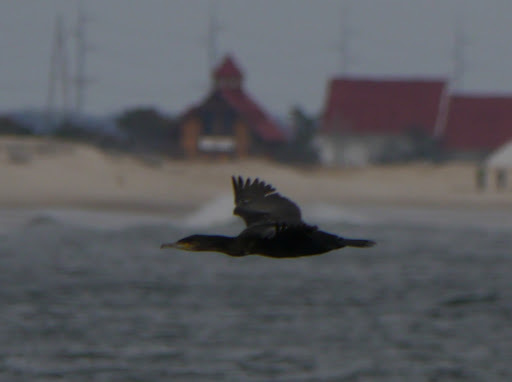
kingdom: Animalia
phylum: Chordata
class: Aves
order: Suliformes
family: Phalacrocoracidae
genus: Phalacrocorax
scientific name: Phalacrocorax auritus
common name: Double-crested cormorant
